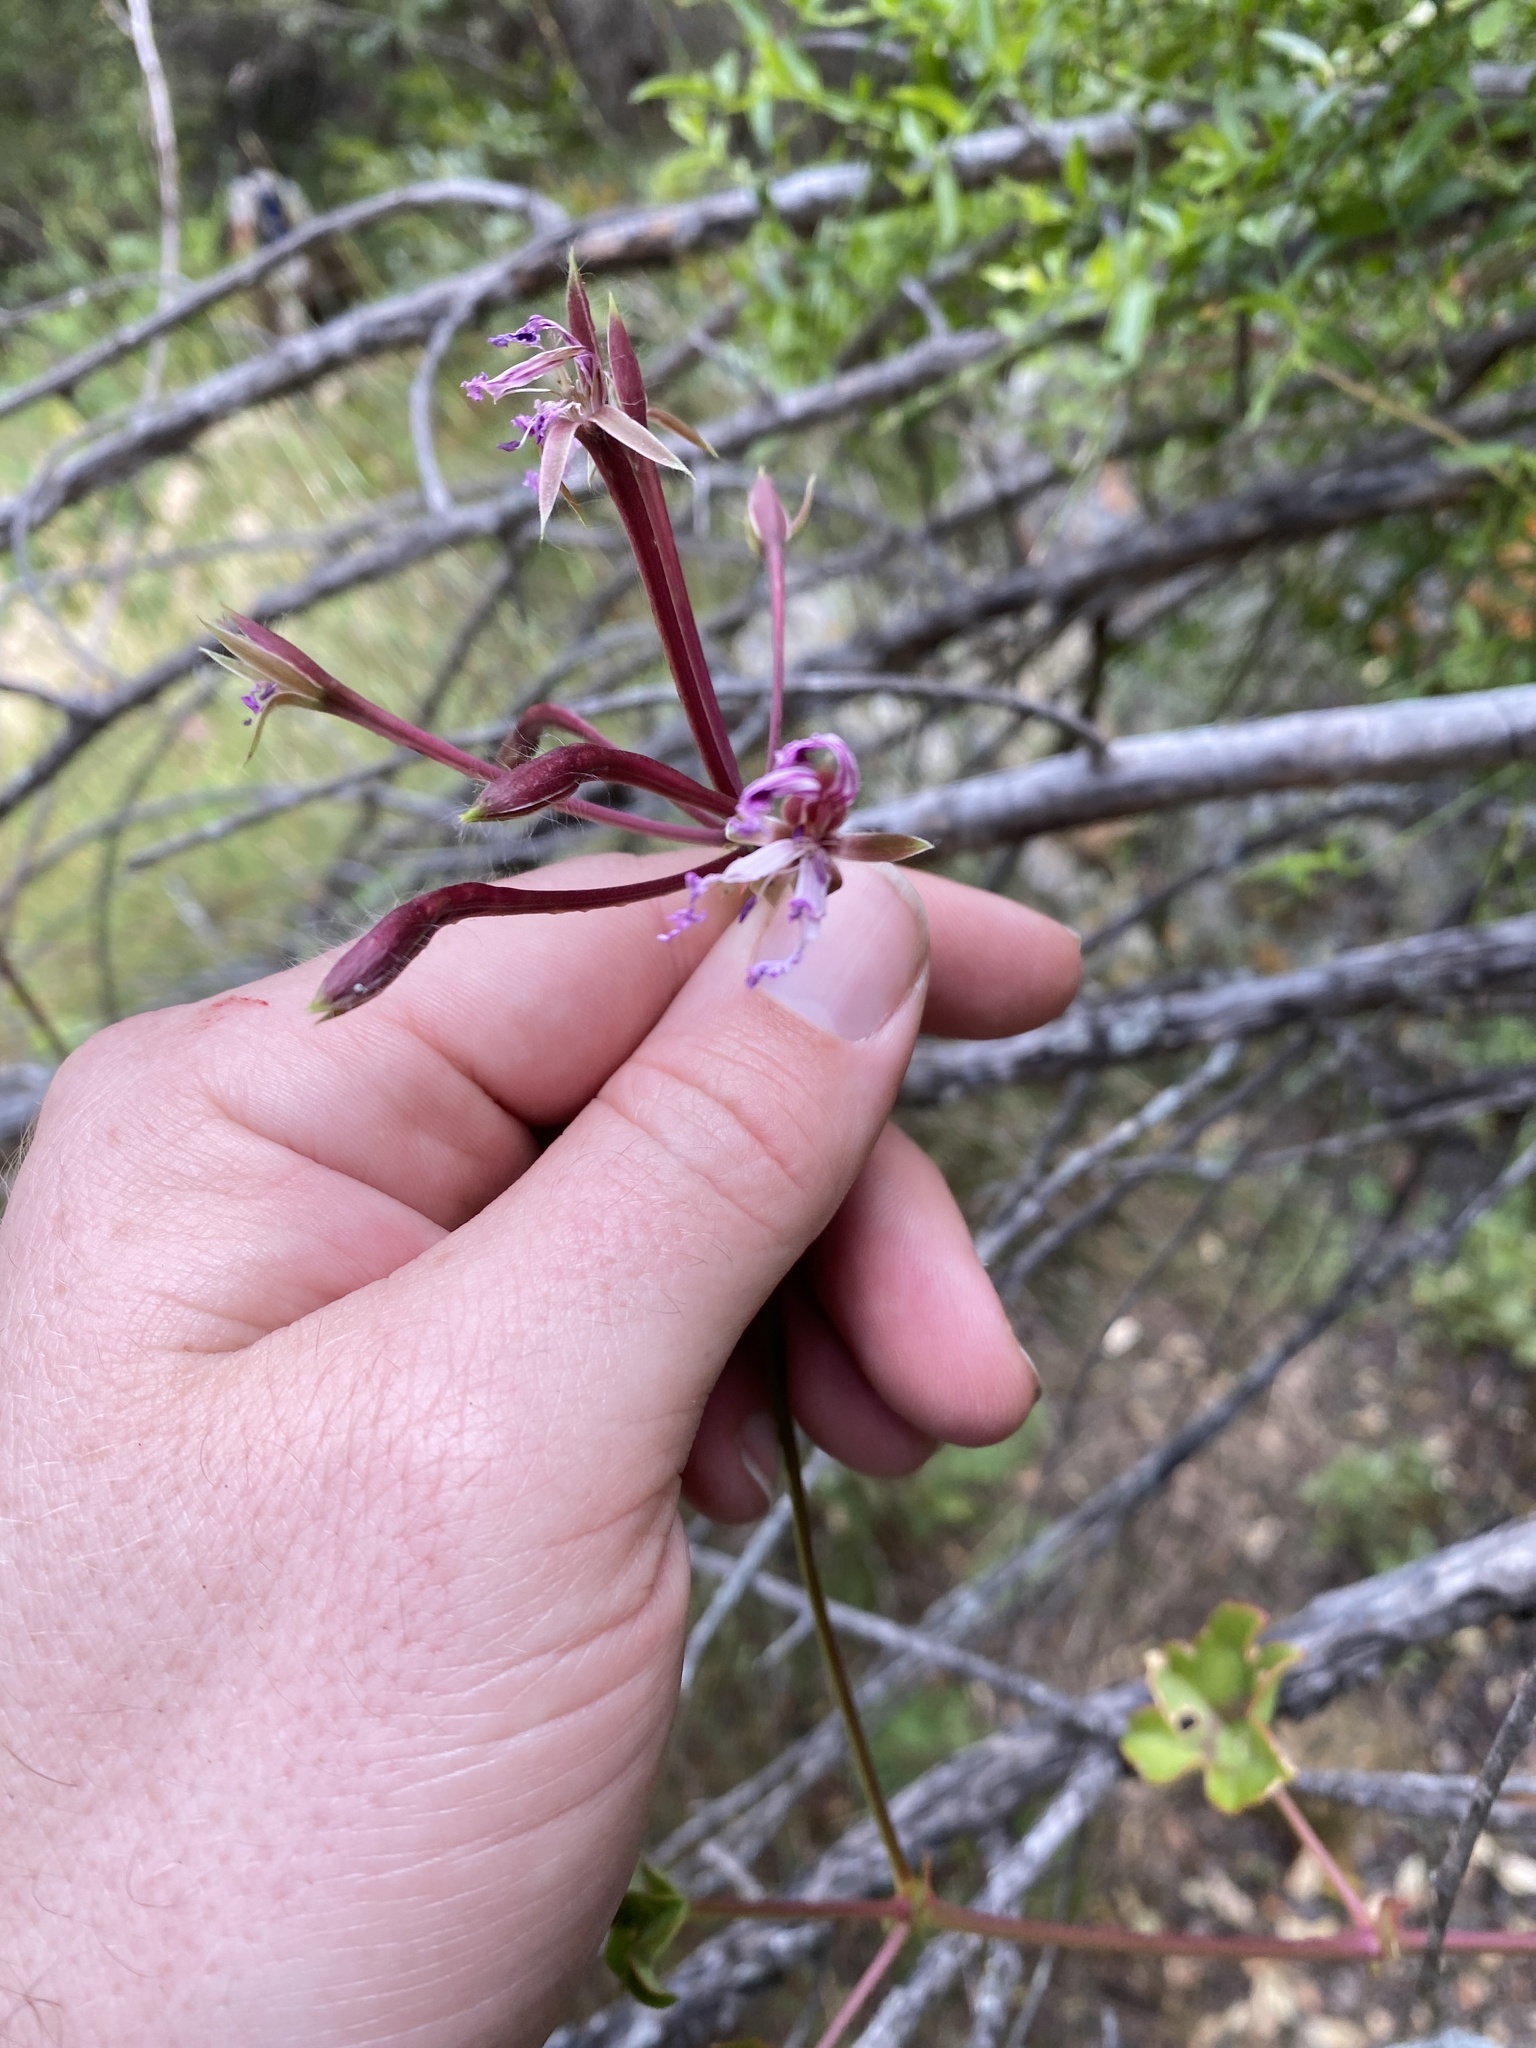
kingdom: Plantae
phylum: Tracheophyta
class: Magnoliopsida
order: Geraniales
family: Geraniaceae
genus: Pelargonium
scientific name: Pelargonium peltatum
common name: Ivyleaf geranium
